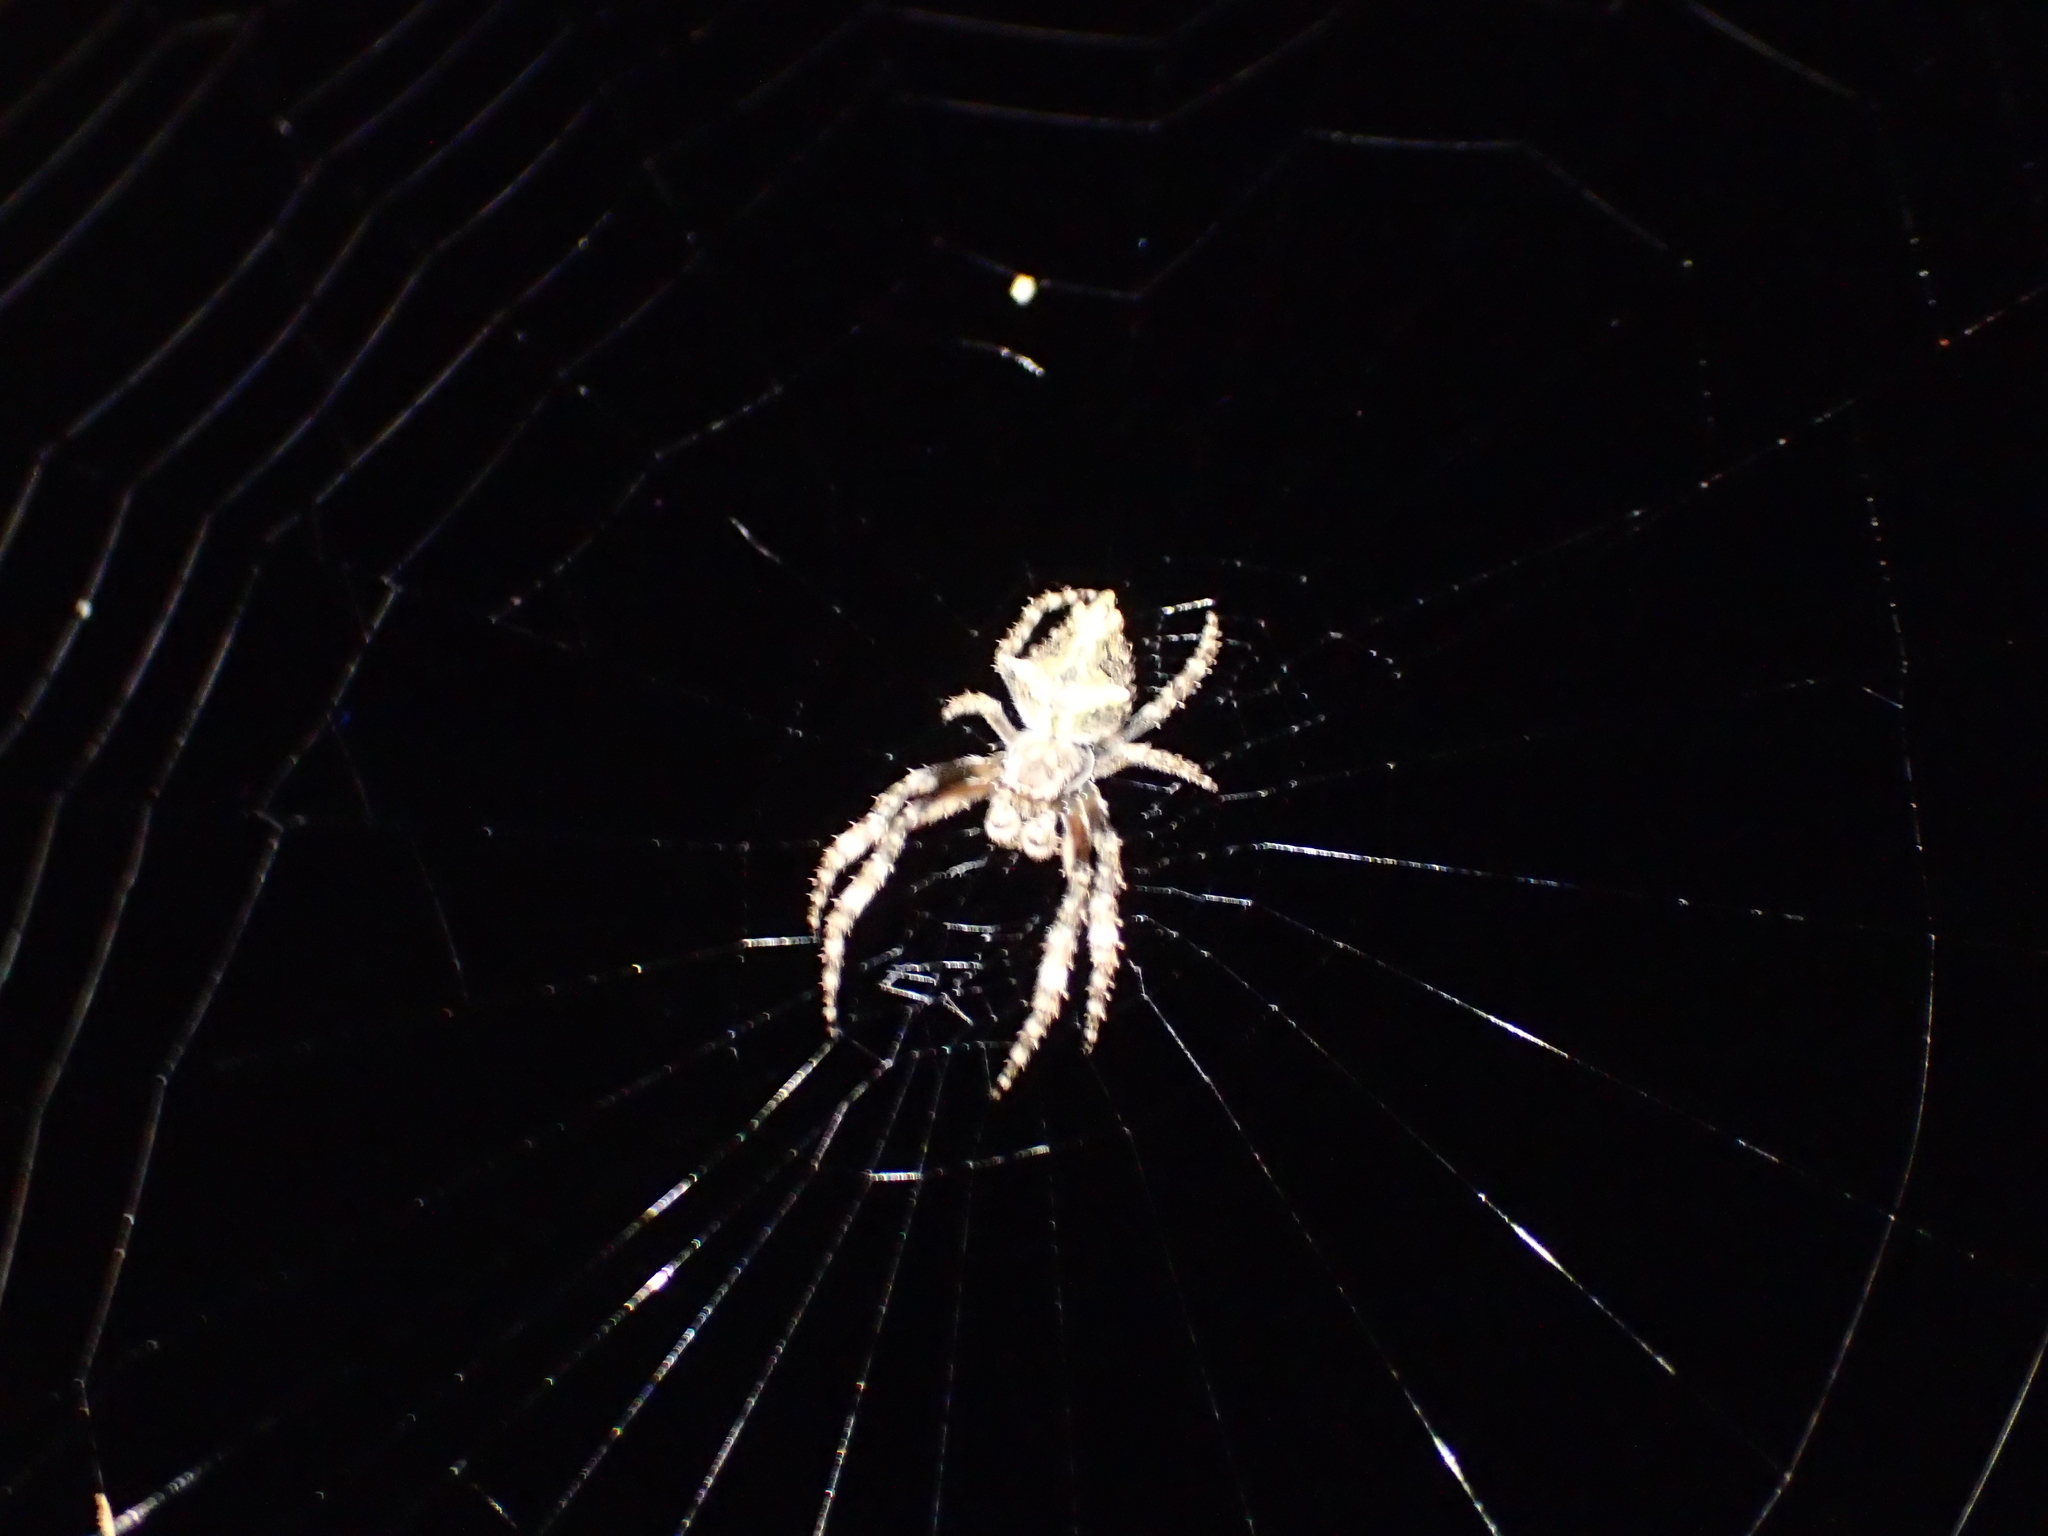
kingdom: Animalia
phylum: Arthropoda
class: Arachnida
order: Araneae
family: Araneidae
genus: Eriophora
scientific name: Eriophora pustulosa
